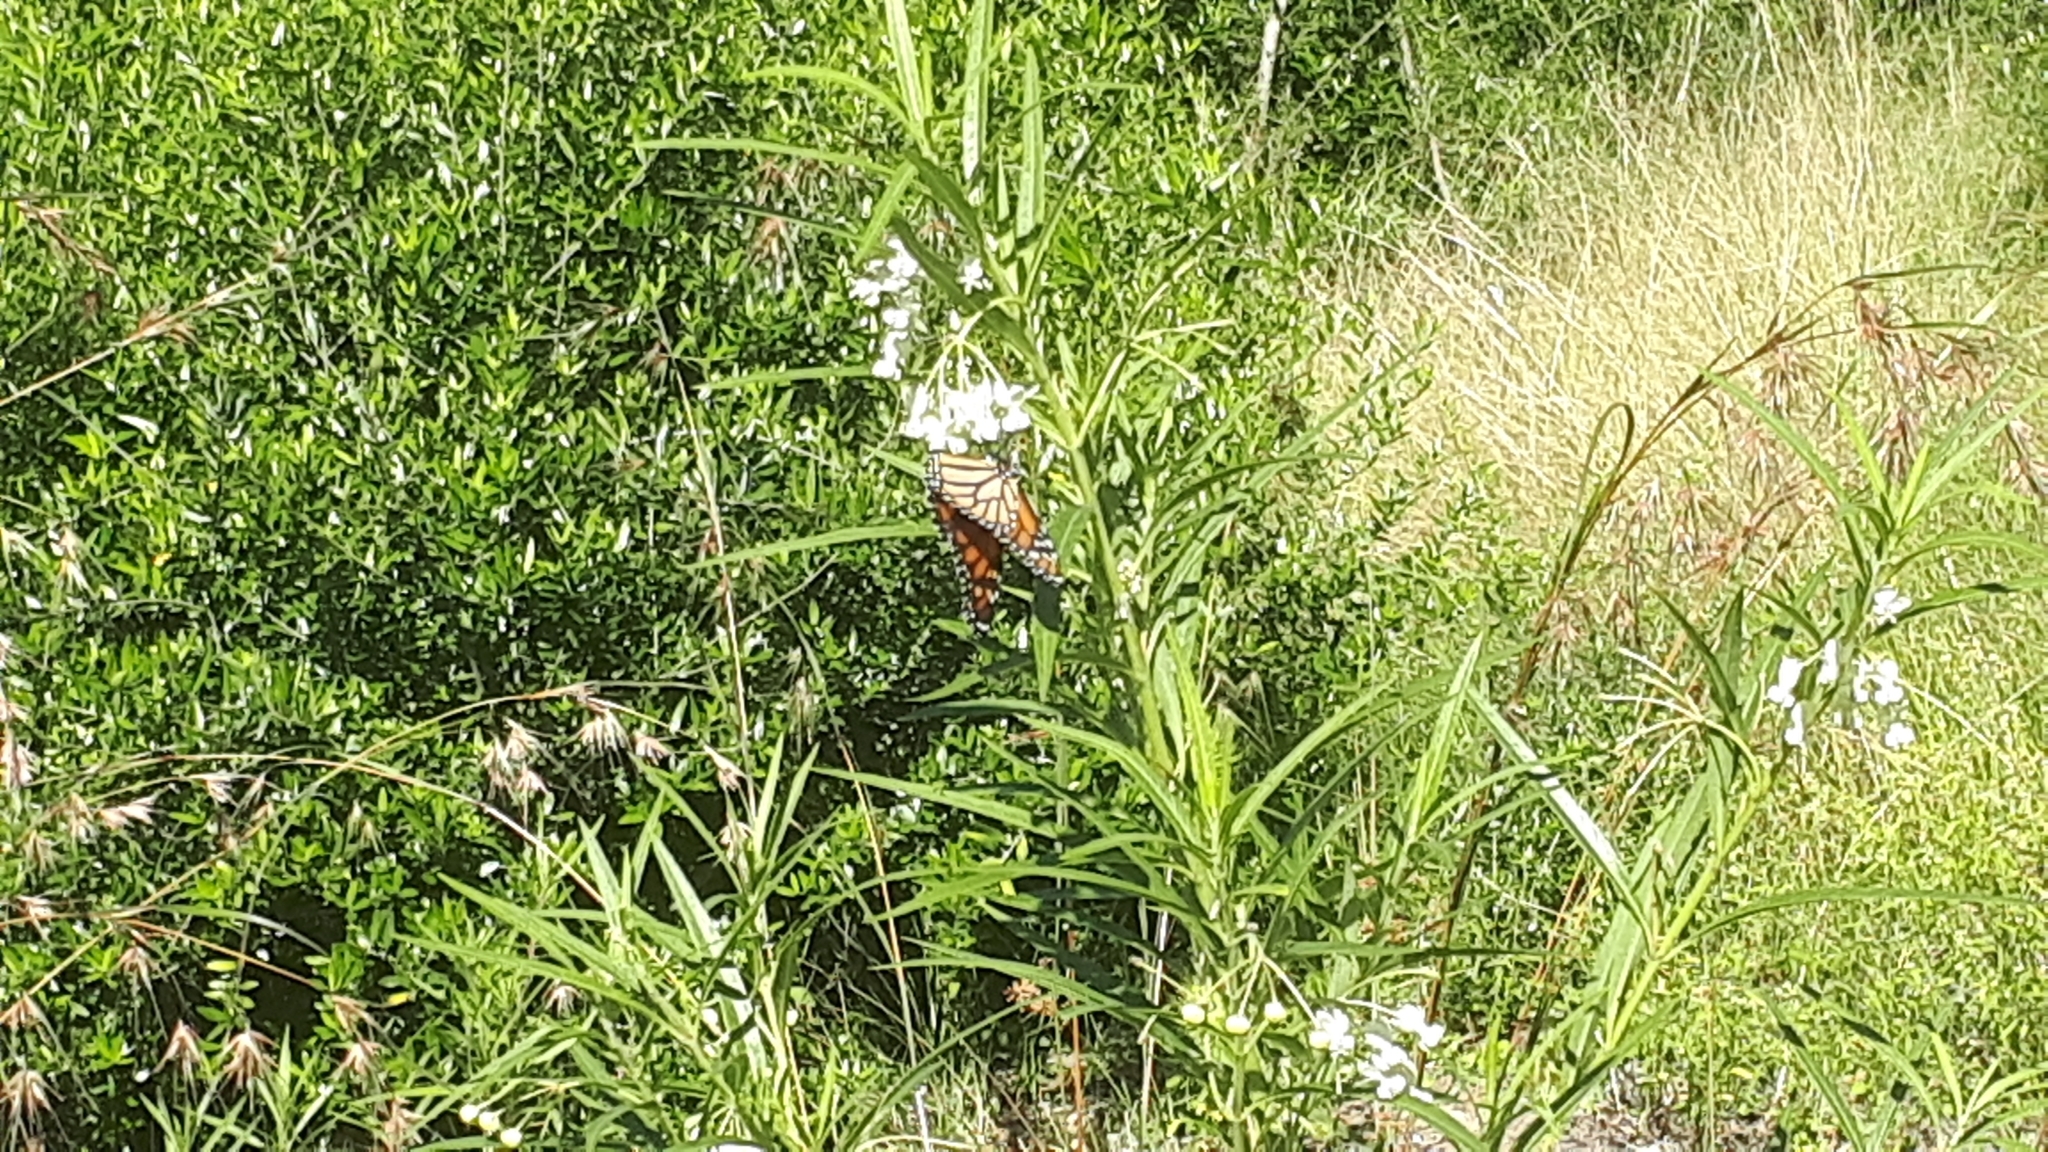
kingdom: Animalia
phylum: Arthropoda
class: Insecta
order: Lepidoptera
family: Nymphalidae
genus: Danaus
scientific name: Danaus plexippus
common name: Monarch
